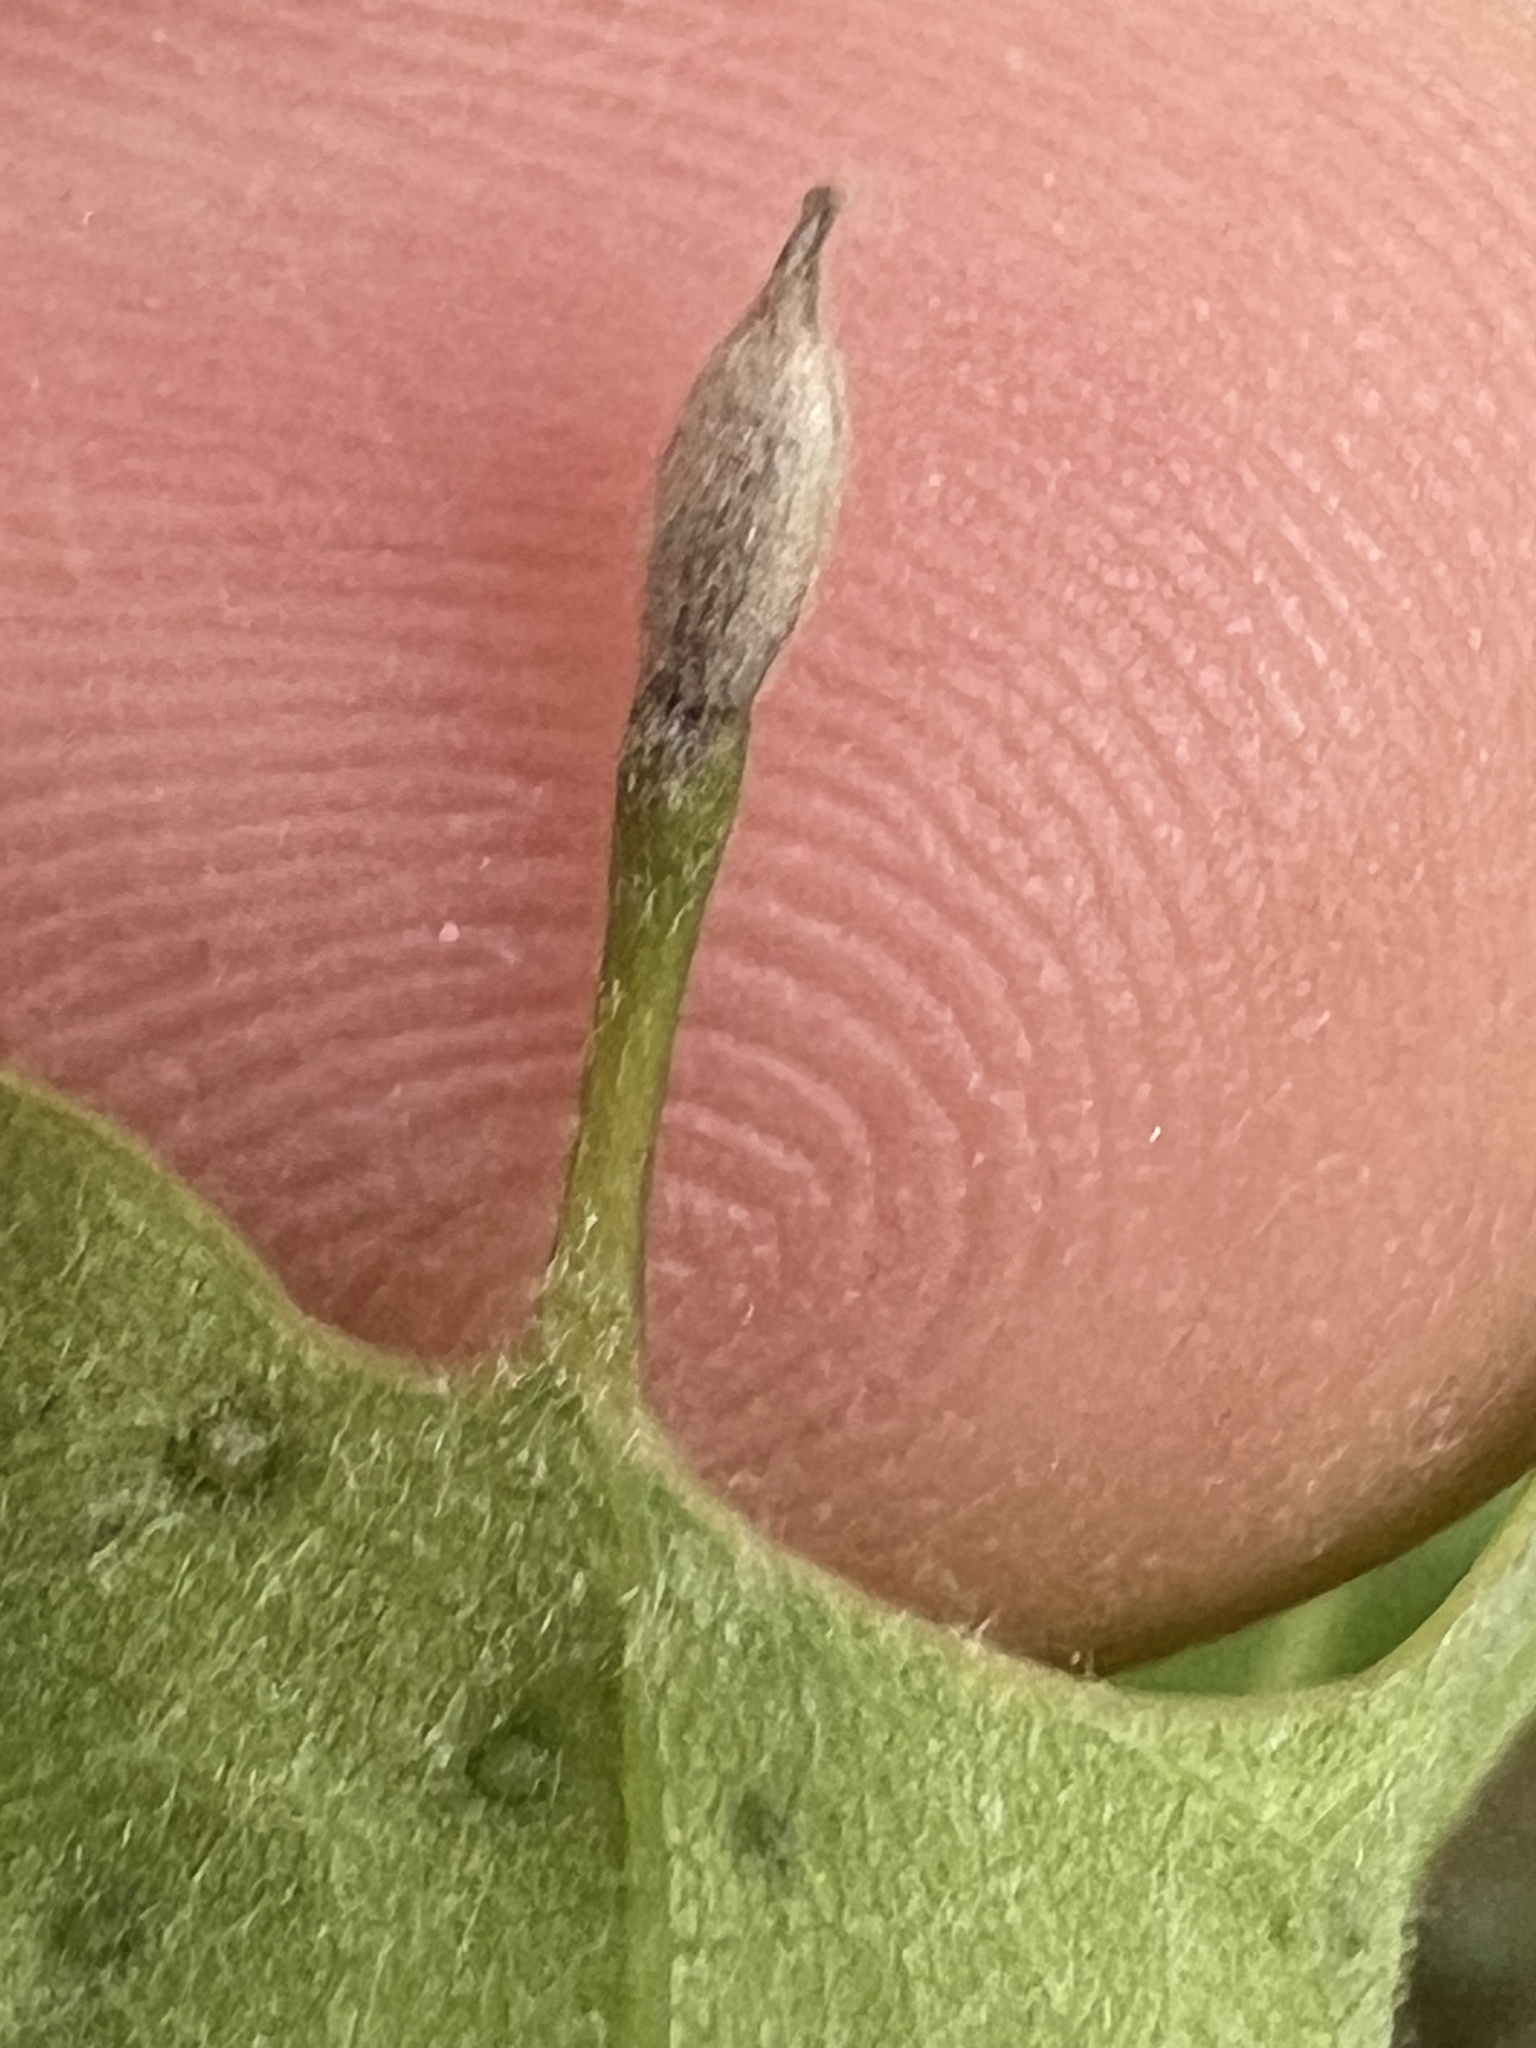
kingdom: Animalia
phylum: Arthropoda
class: Insecta
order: Hymenoptera
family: Cynipidae
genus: Andricus
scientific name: Andricus
